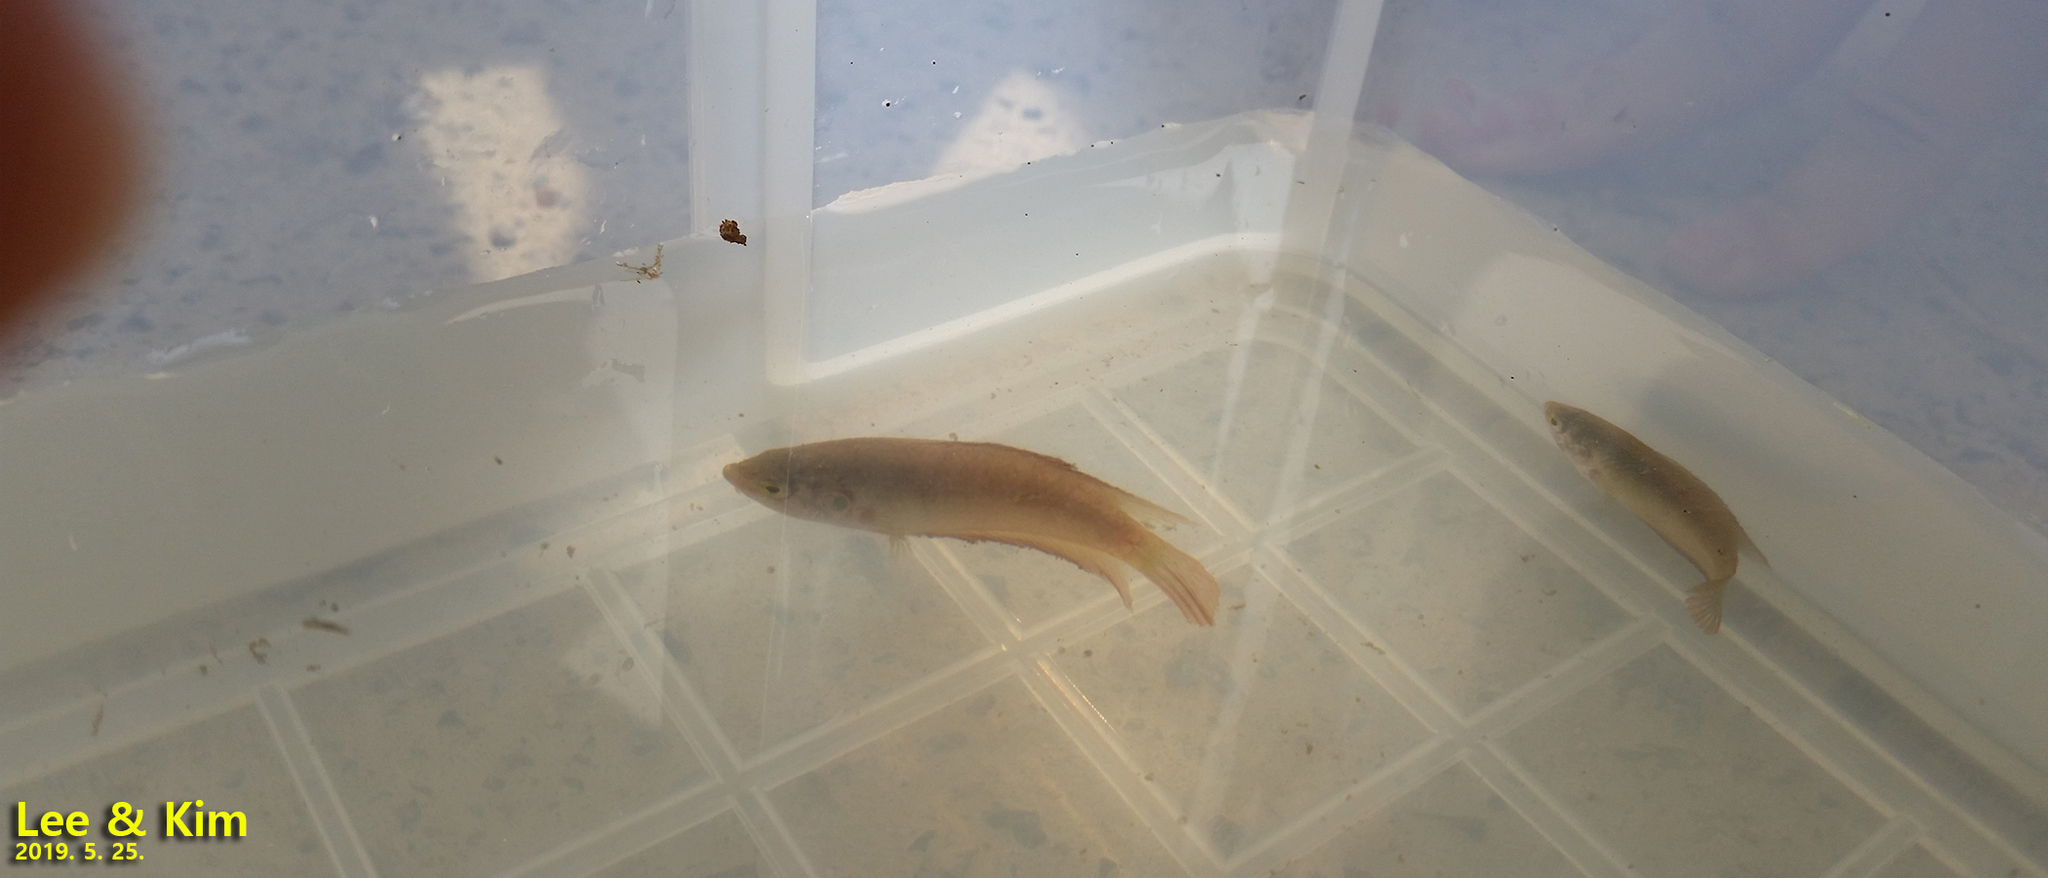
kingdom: Animalia
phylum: Chordata
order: Perciformes
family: Osphronemidae
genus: Macropodus
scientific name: Macropodus ocellatus
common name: Roundtail paradisefish
